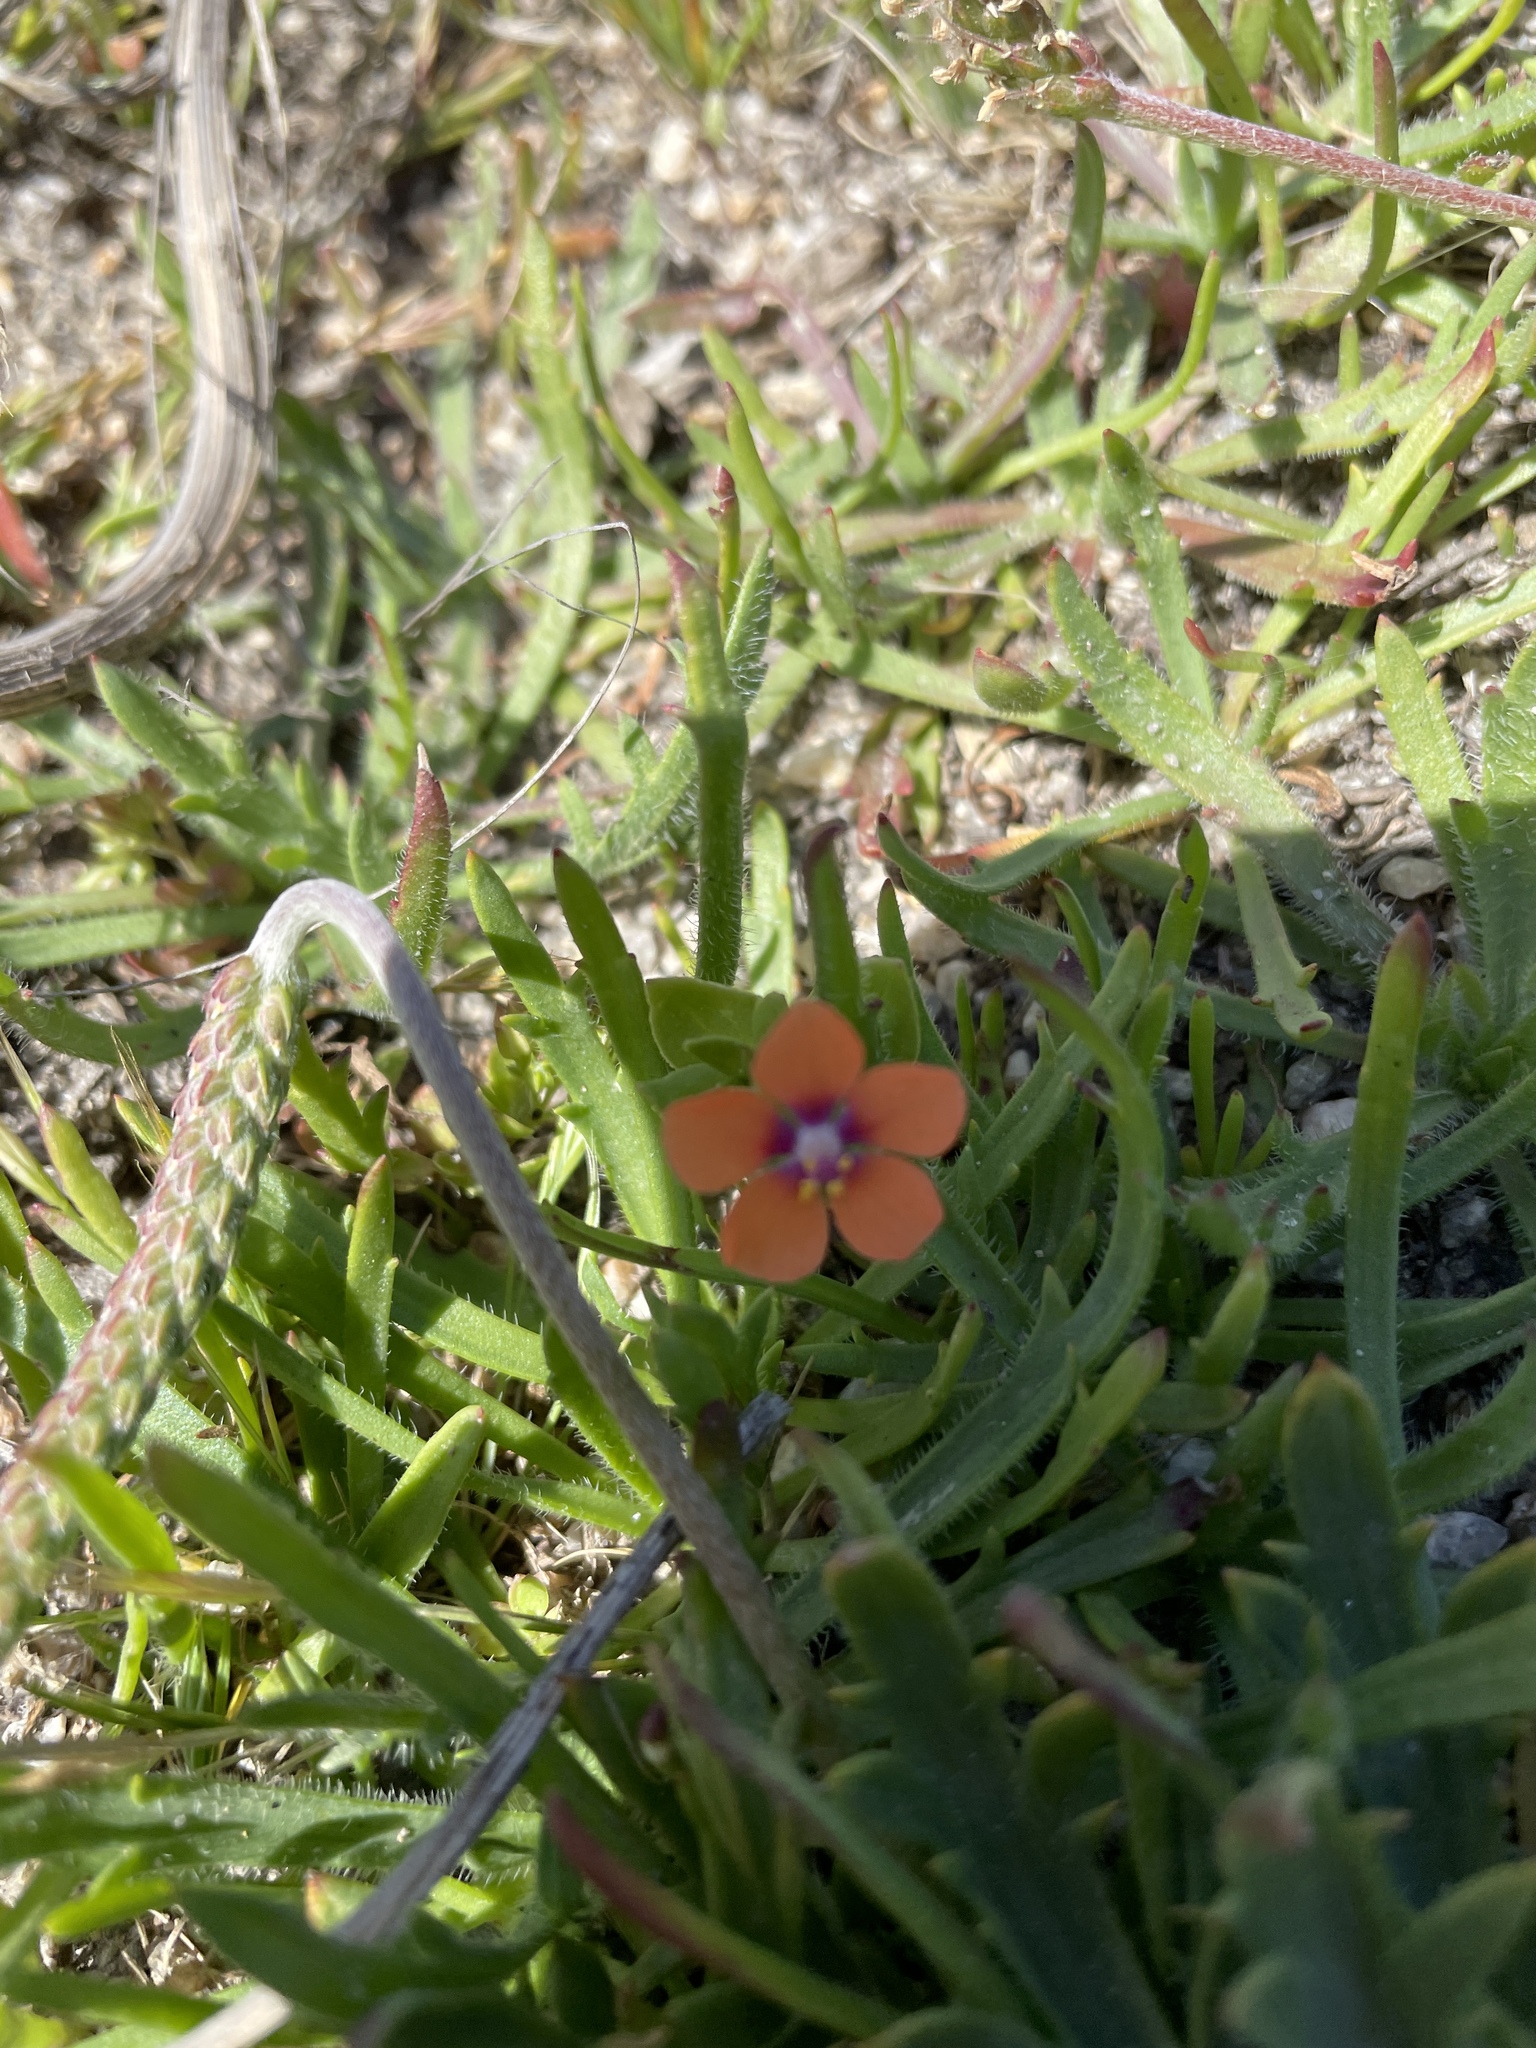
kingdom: Plantae
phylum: Tracheophyta
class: Magnoliopsida
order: Ericales
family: Primulaceae
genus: Lysimachia
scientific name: Lysimachia arvensis
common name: Scarlet pimpernel
